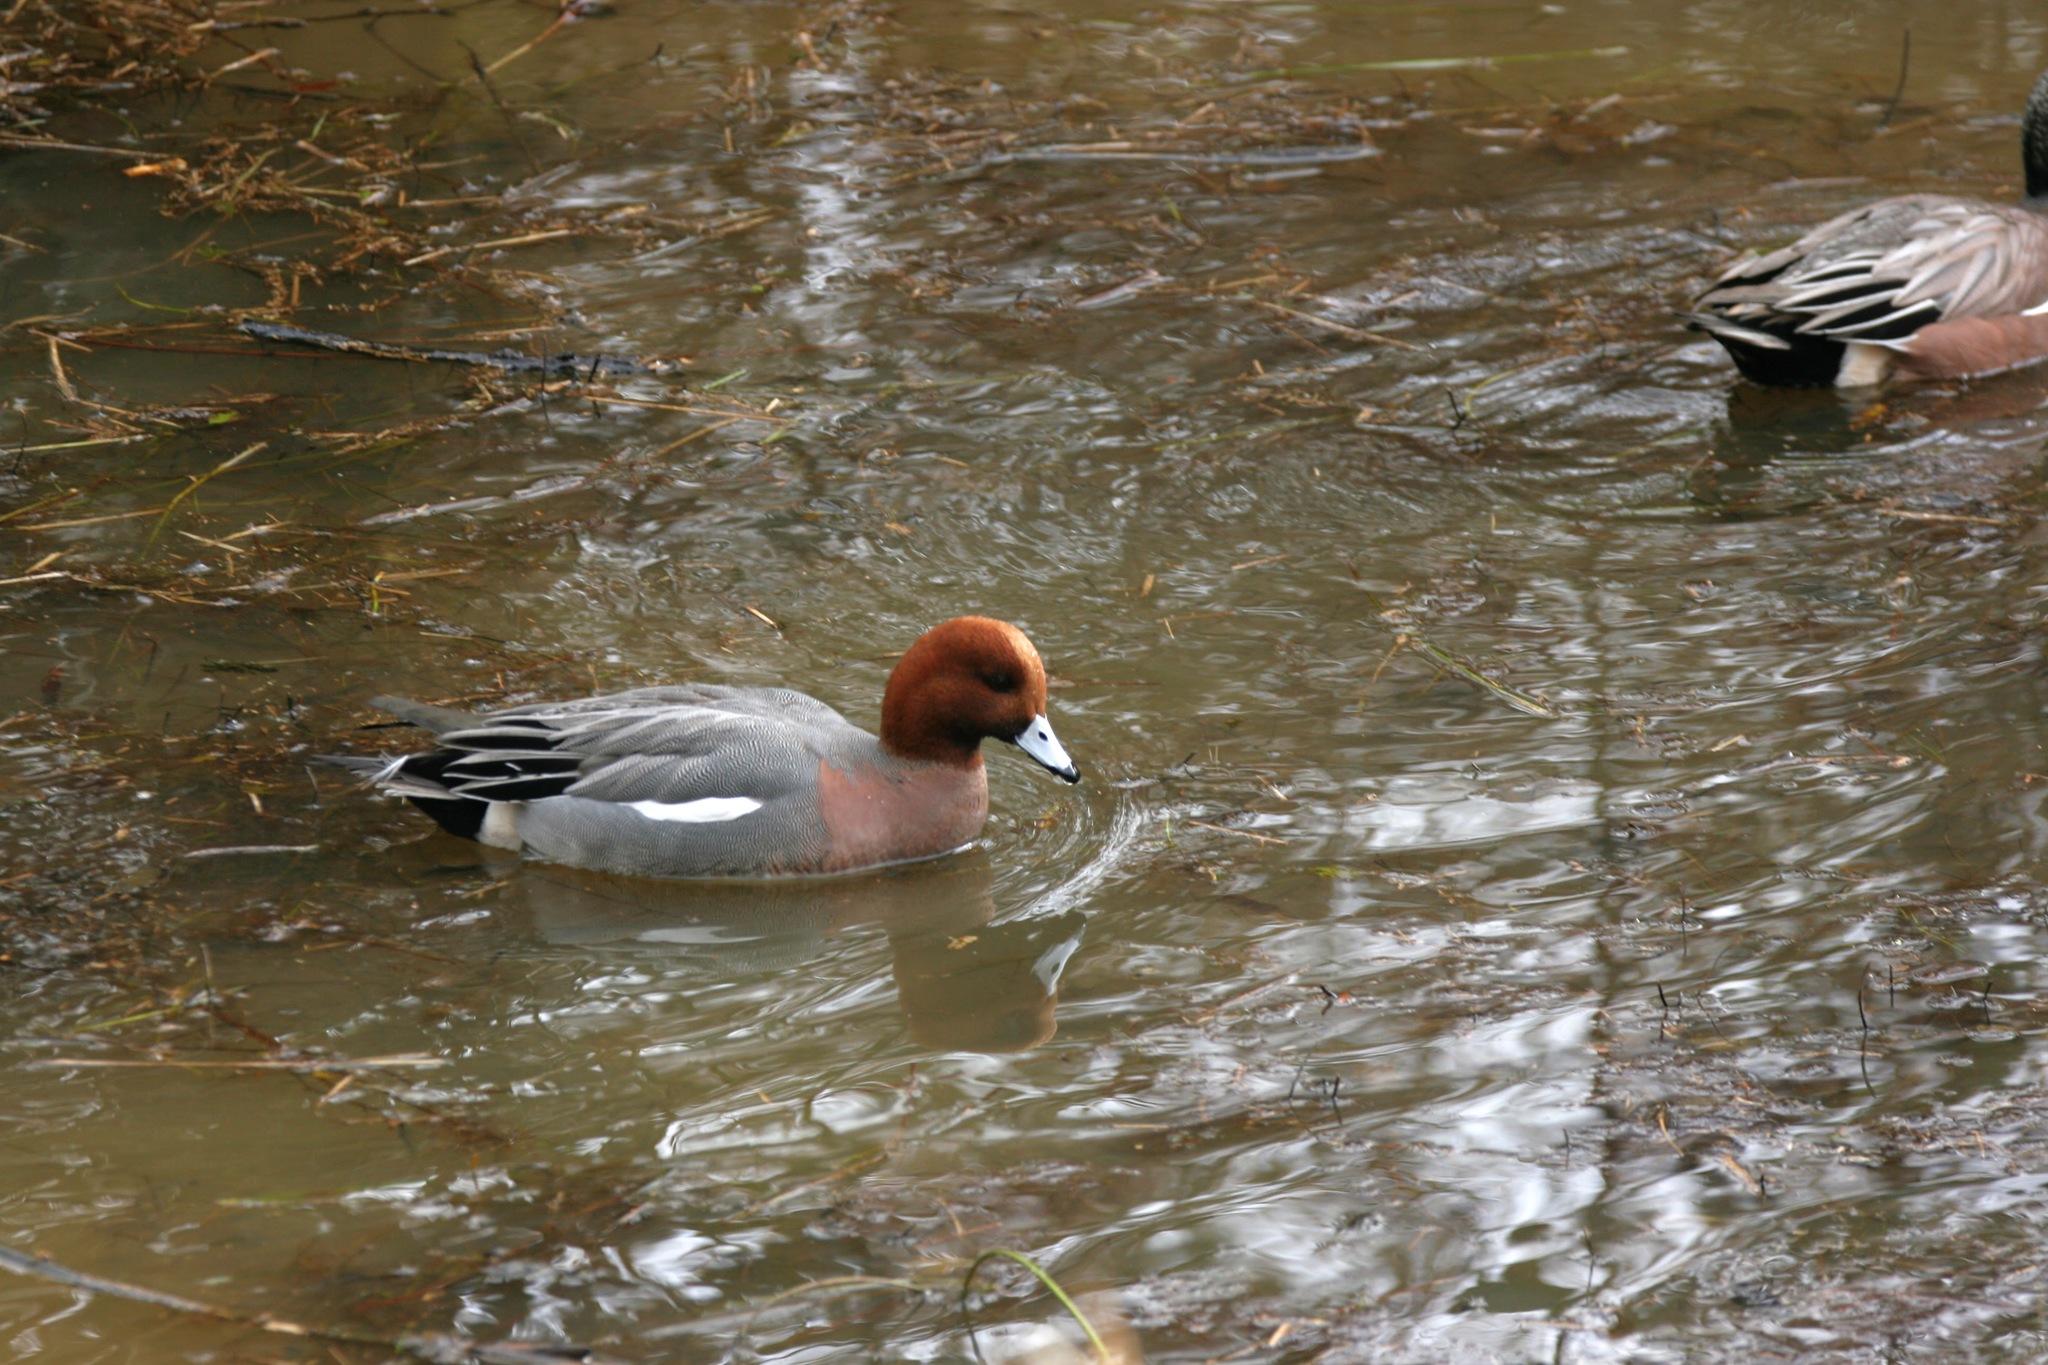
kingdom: Animalia
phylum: Chordata
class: Aves
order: Anseriformes
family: Anatidae
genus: Mareca
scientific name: Mareca penelope
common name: Eurasian wigeon
